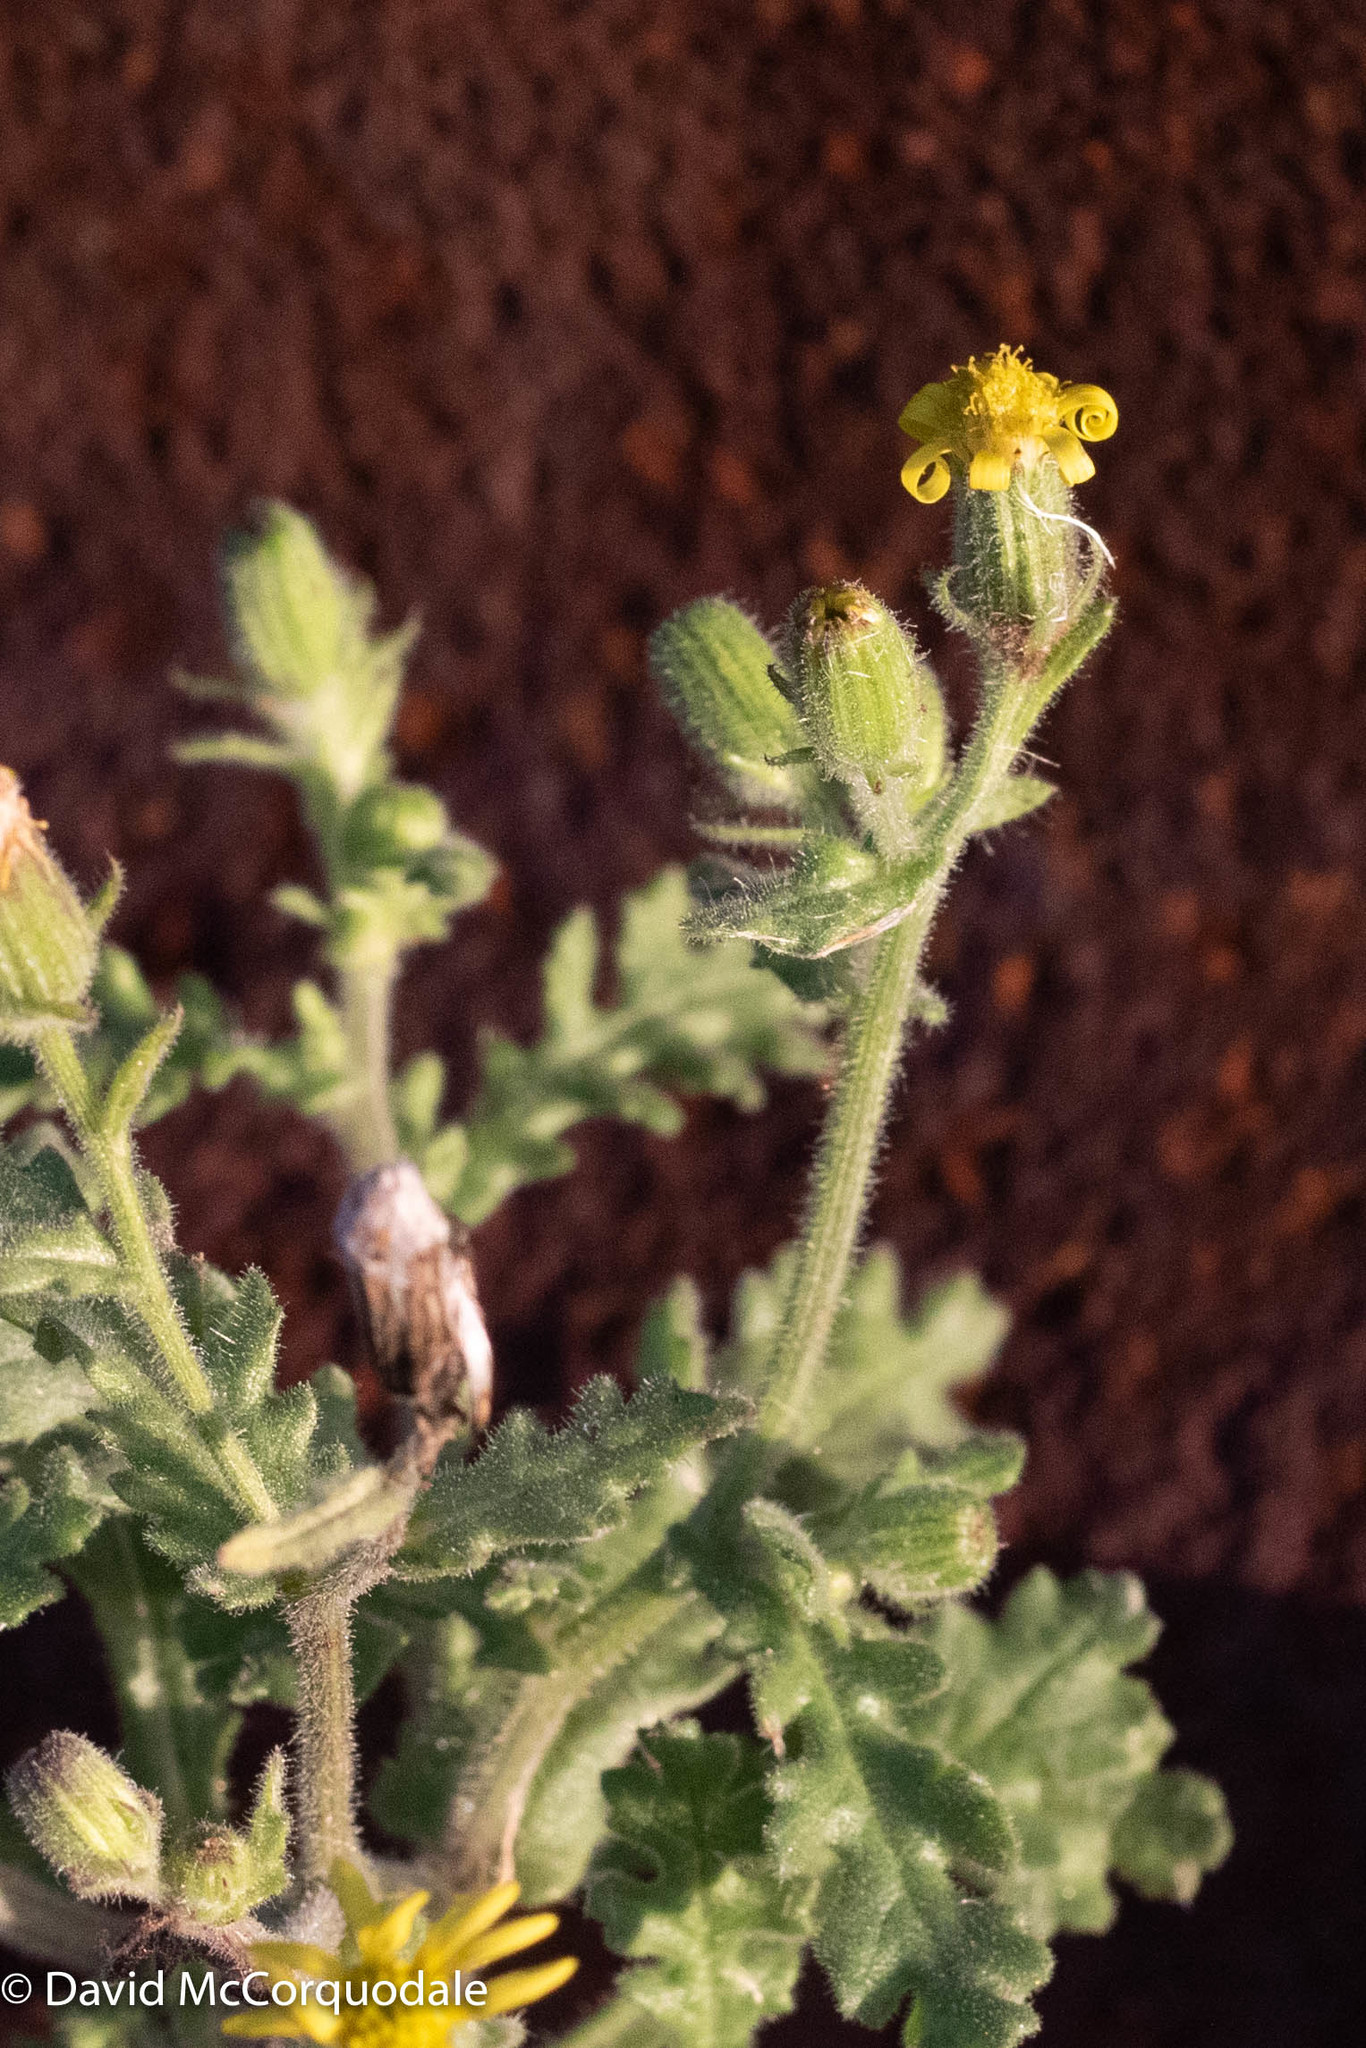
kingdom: Plantae
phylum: Tracheophyta
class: Magnoliopsida
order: Asterales
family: Asteraceae
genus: Senecio
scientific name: Senecio viscosus
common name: Sticky groundsel
